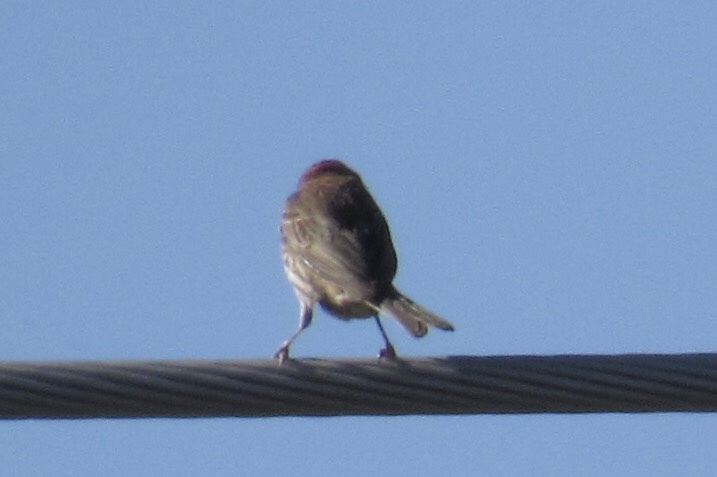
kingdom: Animalia
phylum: Chordata
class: Aves
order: Passeriformes
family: Fringillidae
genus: Haemorhous
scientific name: Haemorhous mexicanus
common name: House finch
